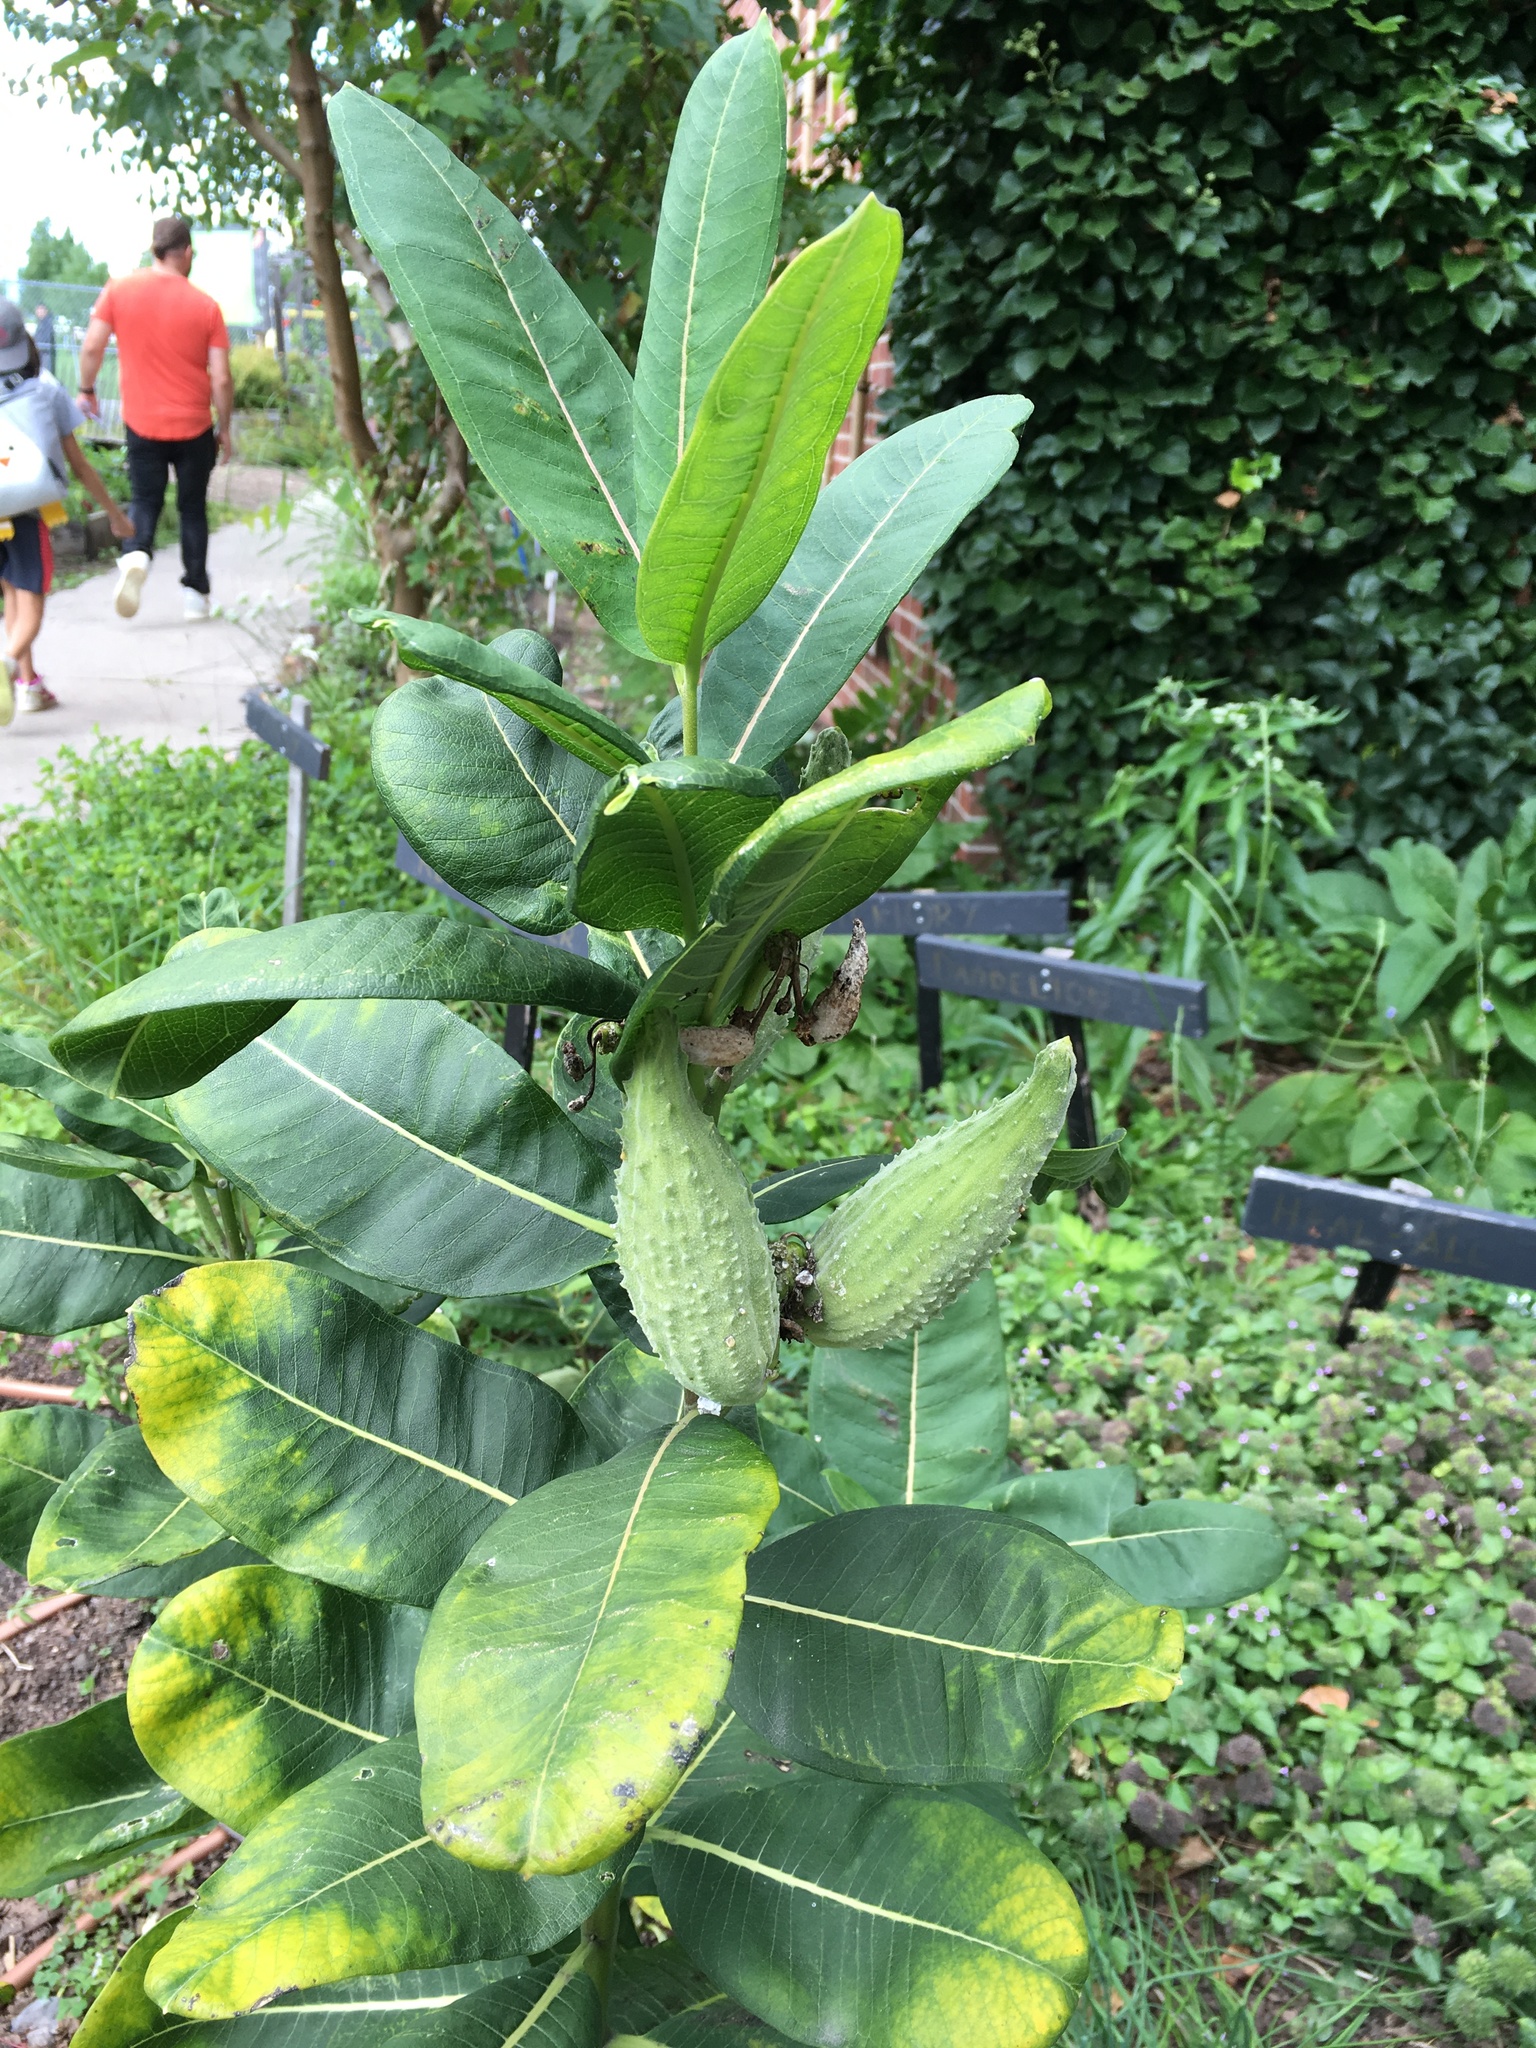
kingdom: Plantae
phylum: Tracheophyta
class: Magnoliopsida
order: Gentianales
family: Apocynaceae
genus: Asclepias
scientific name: Asclepias syriaca
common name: Common milkweed
